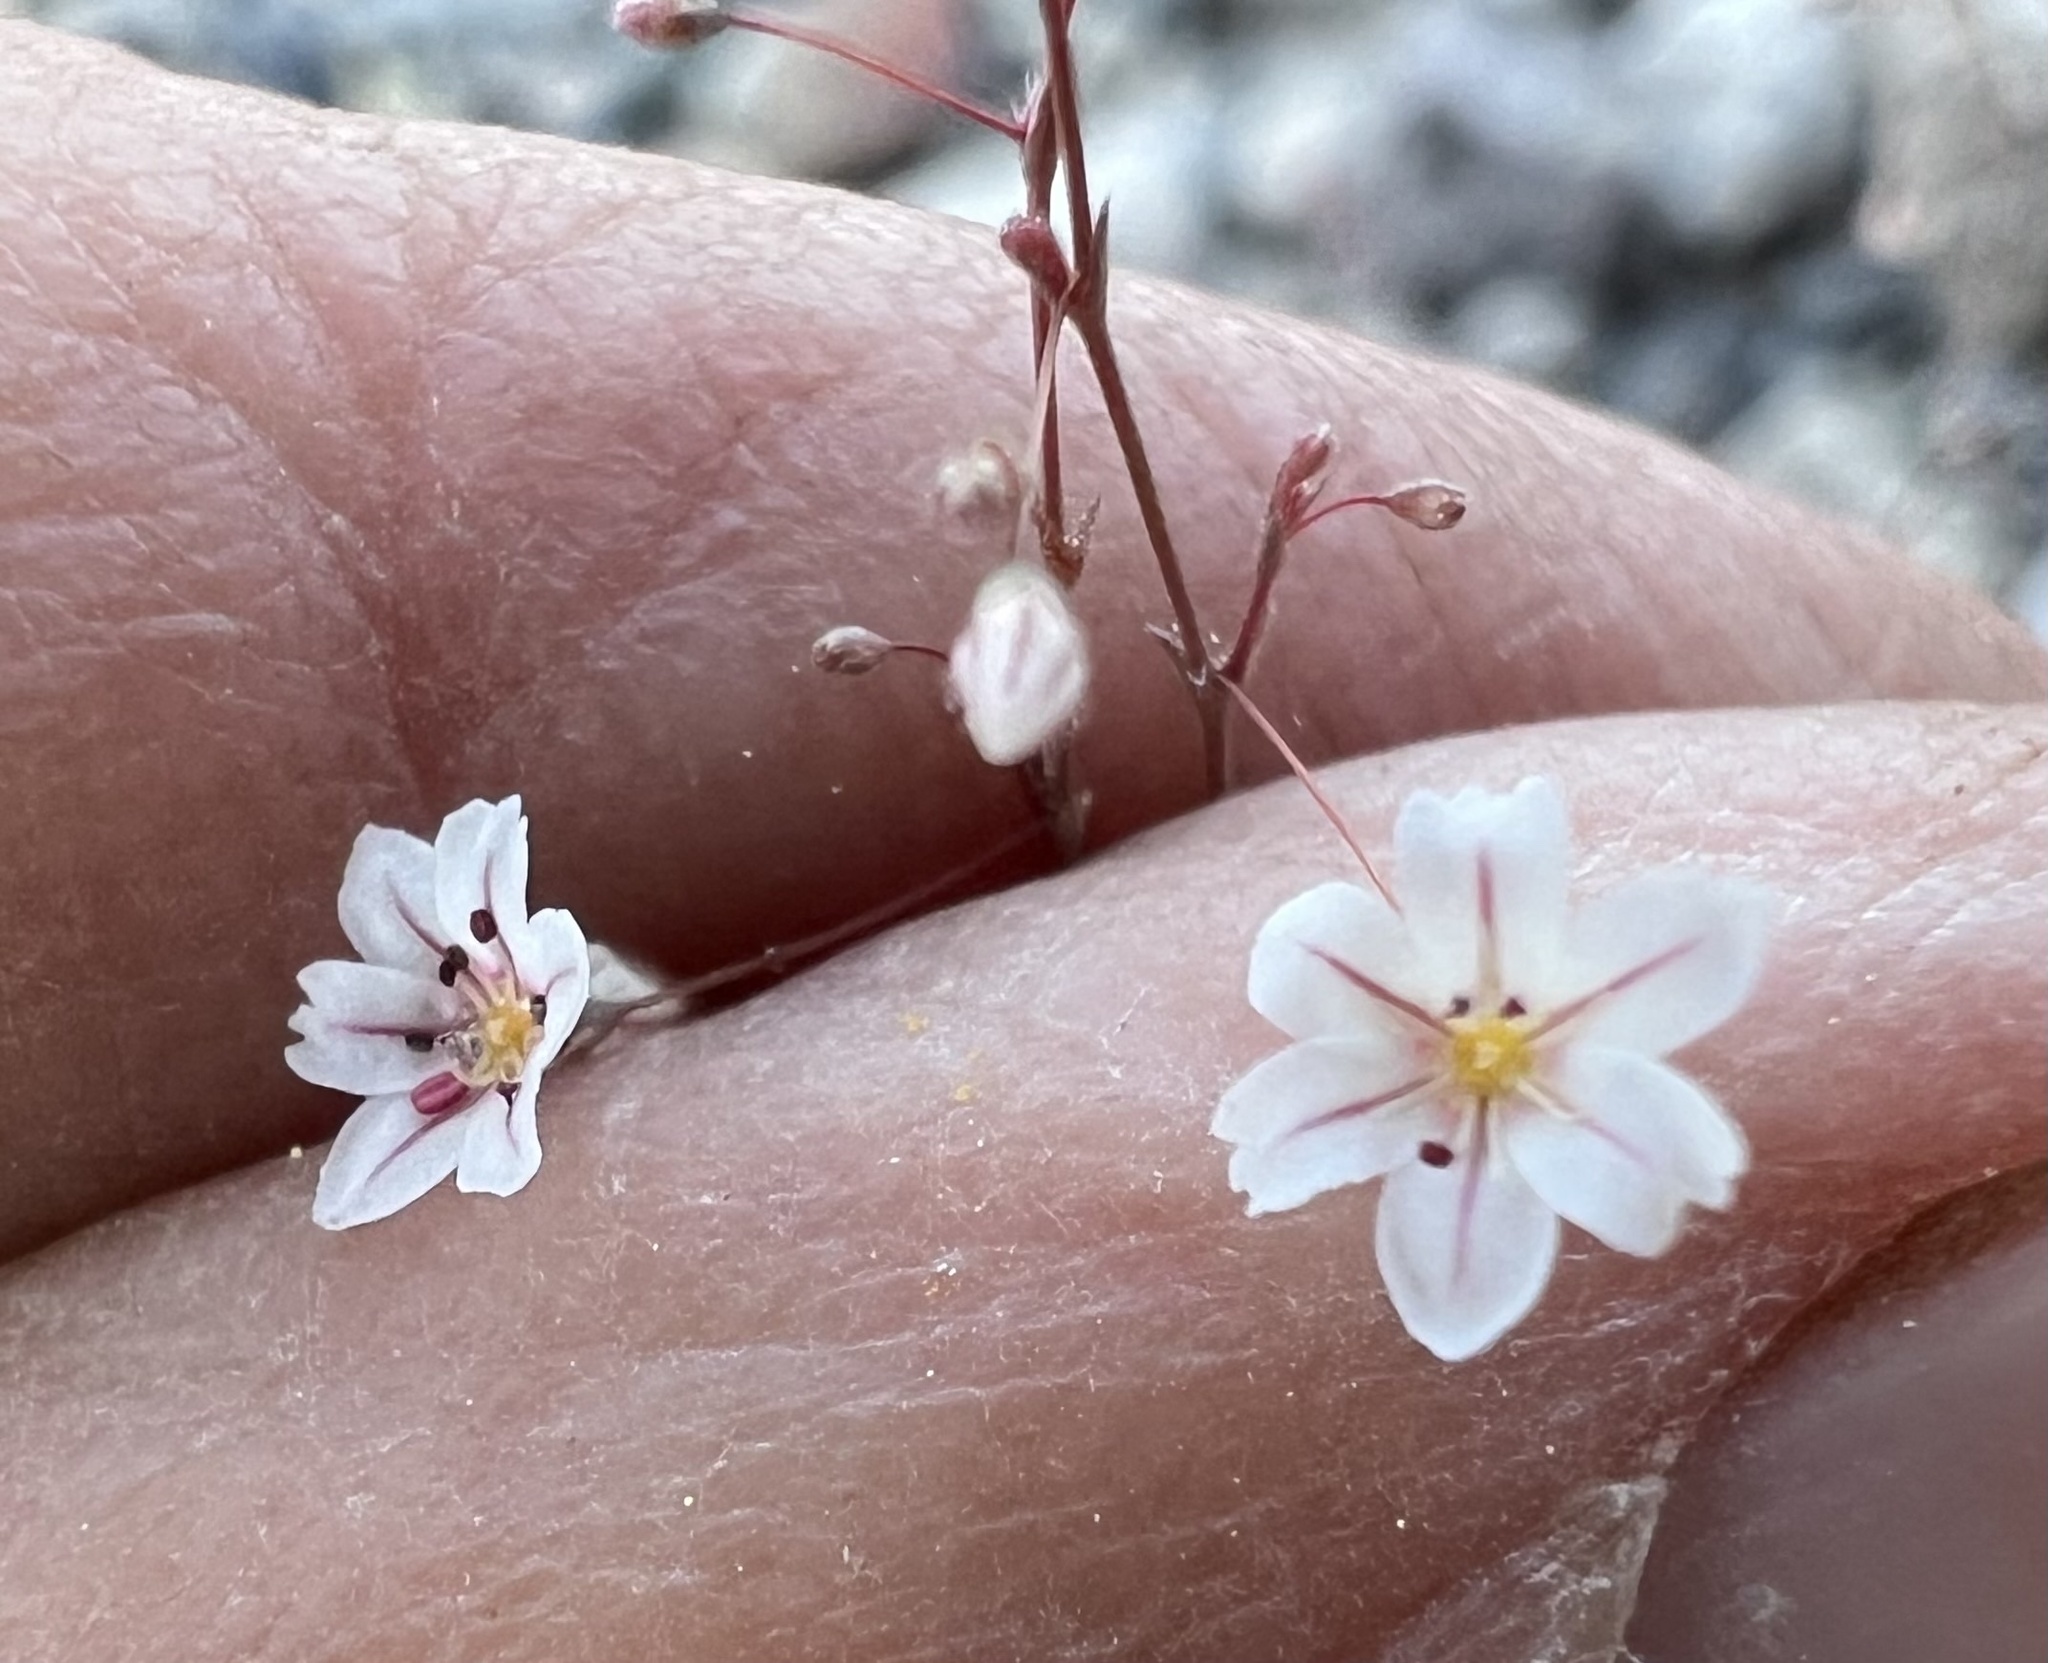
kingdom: Plantae
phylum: Tracheophyta
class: Magnoliopsida
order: Caryophyllales
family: Polygonaceae
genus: Eriogonum
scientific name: Eriogonum spergulinum
